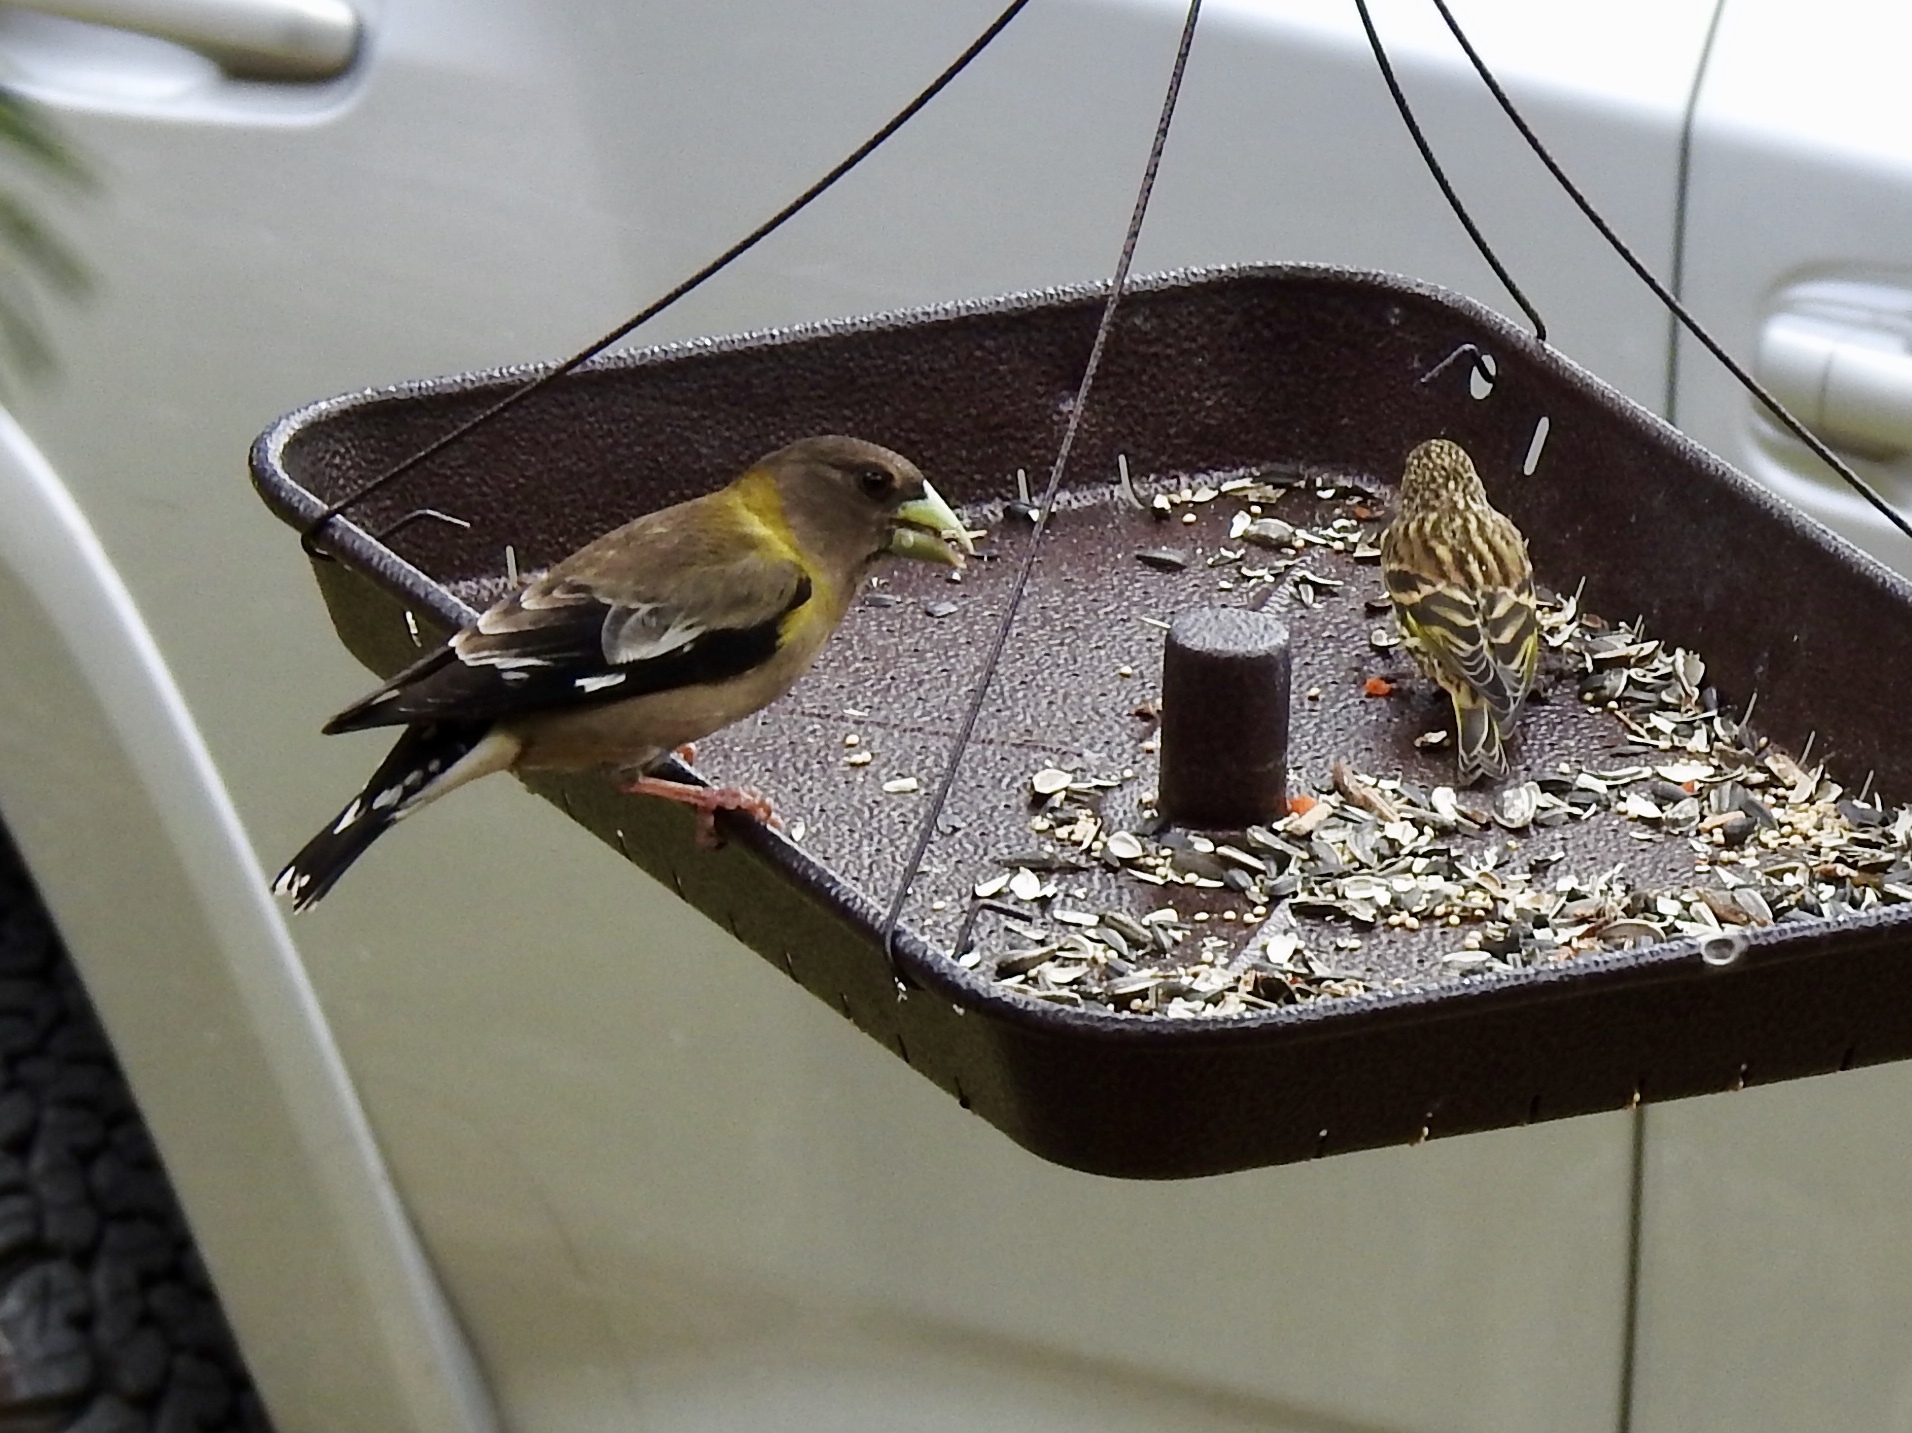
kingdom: Animalia
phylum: Chordata
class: Aves
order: Passeriformes
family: Fringillidae
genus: Spinus
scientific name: Spinus pinus
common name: Pine siskin
